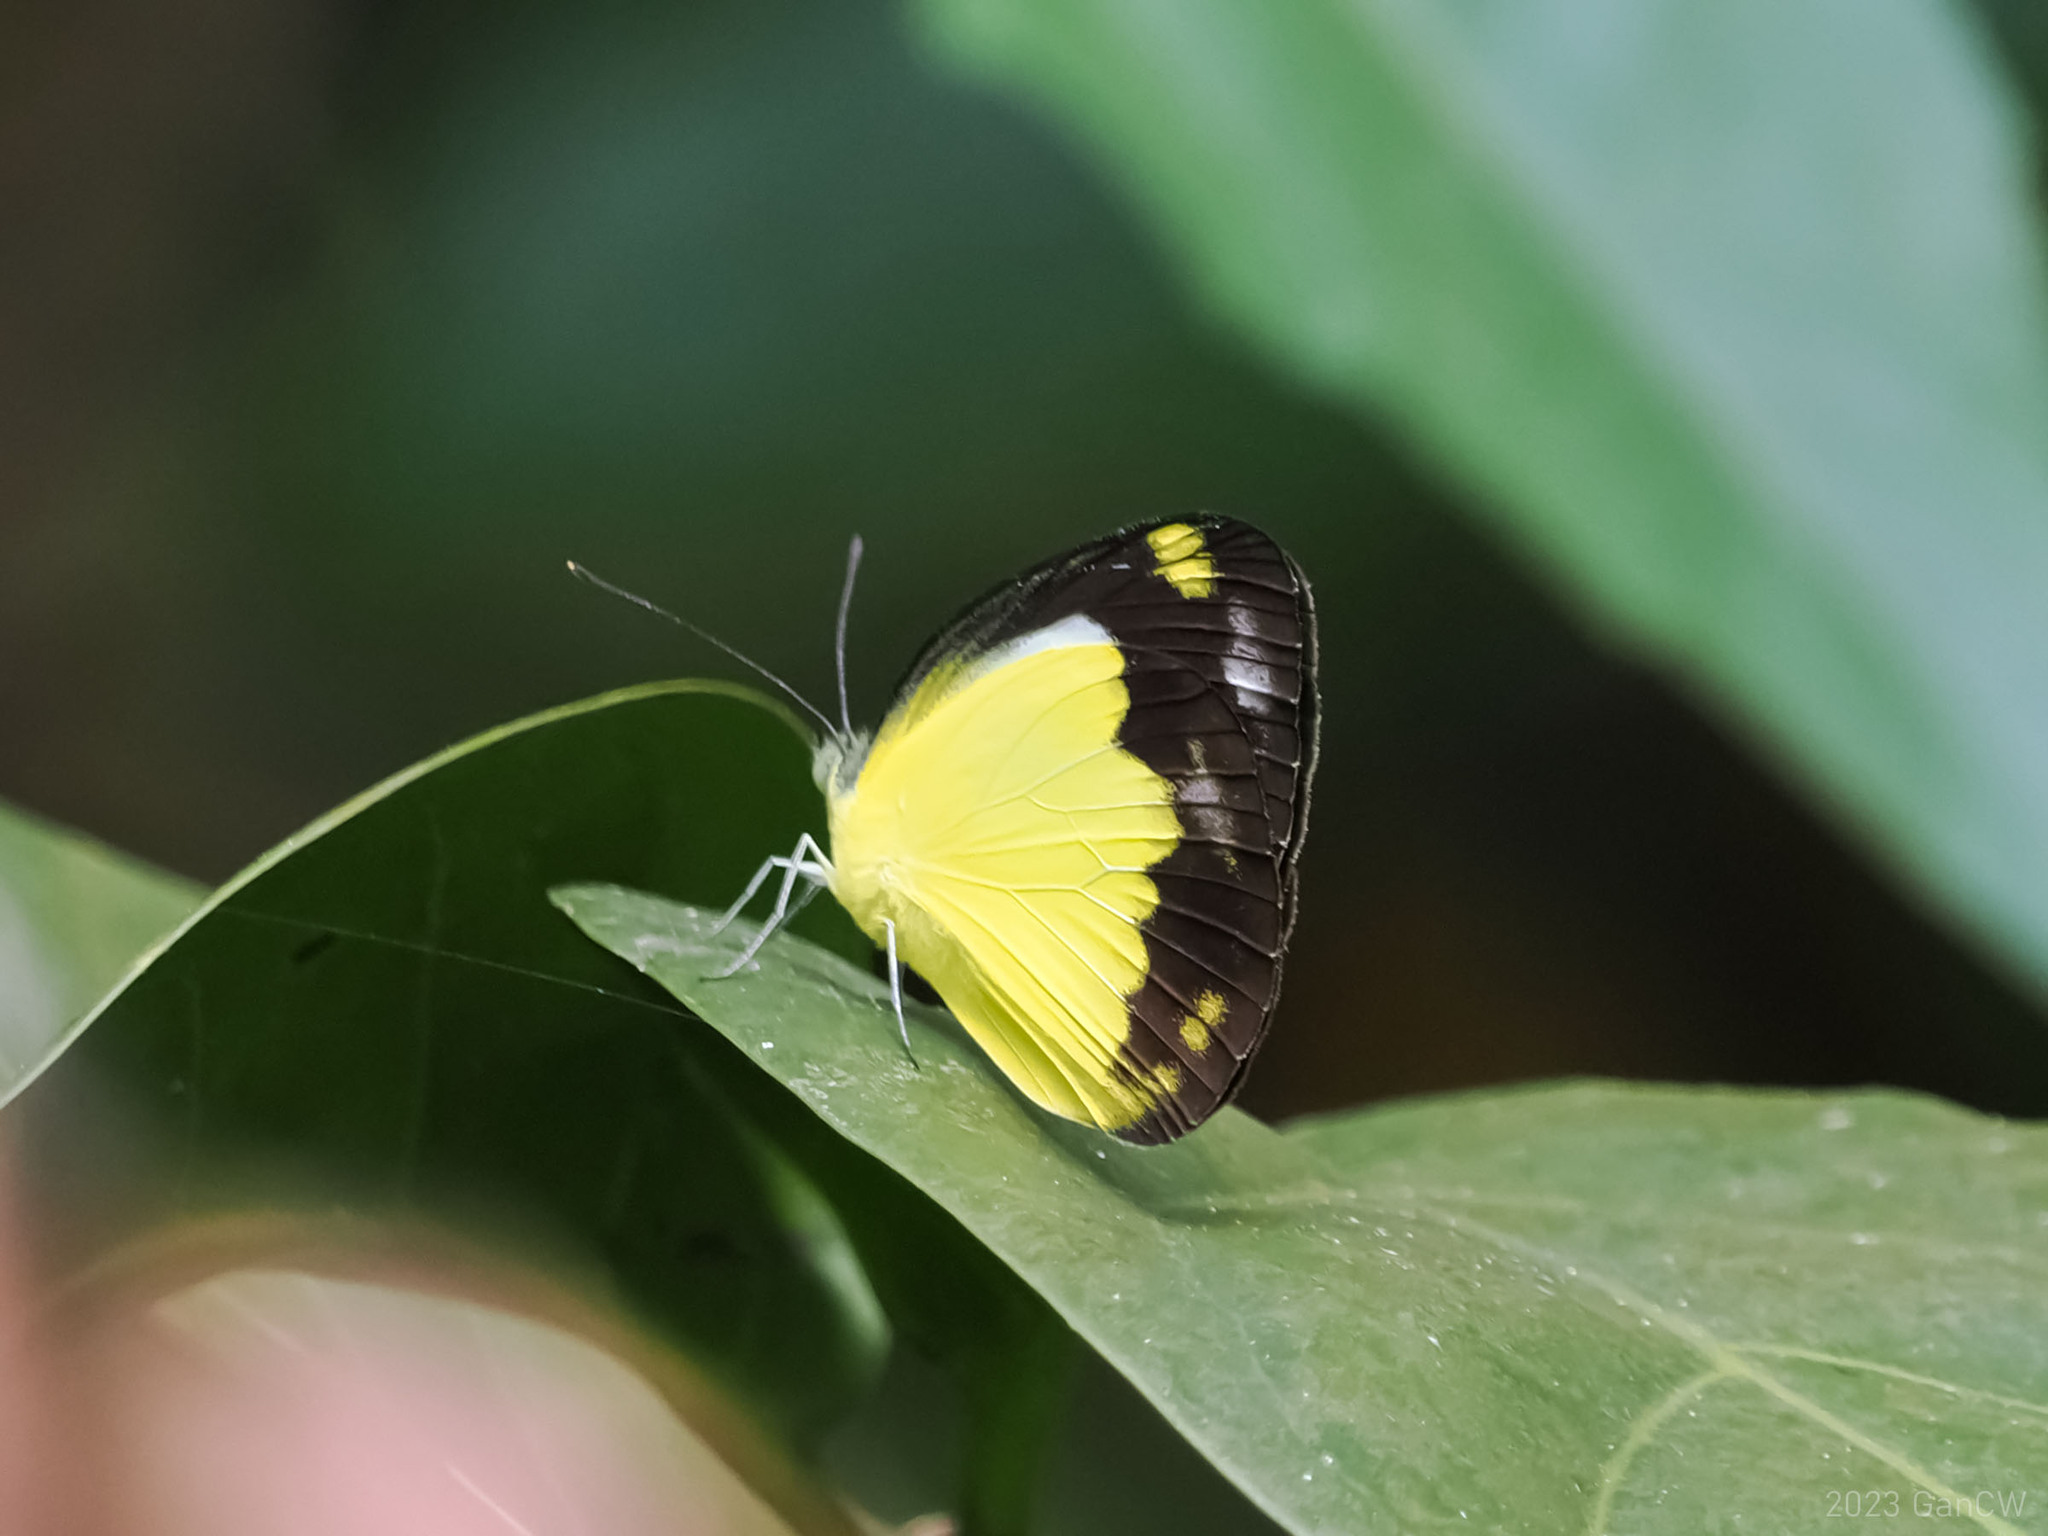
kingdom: Animalia
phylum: Arthropoda
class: Insecta
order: Lepidoptera
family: Pieridae
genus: Cepora
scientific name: Cepora boisduvaliana
